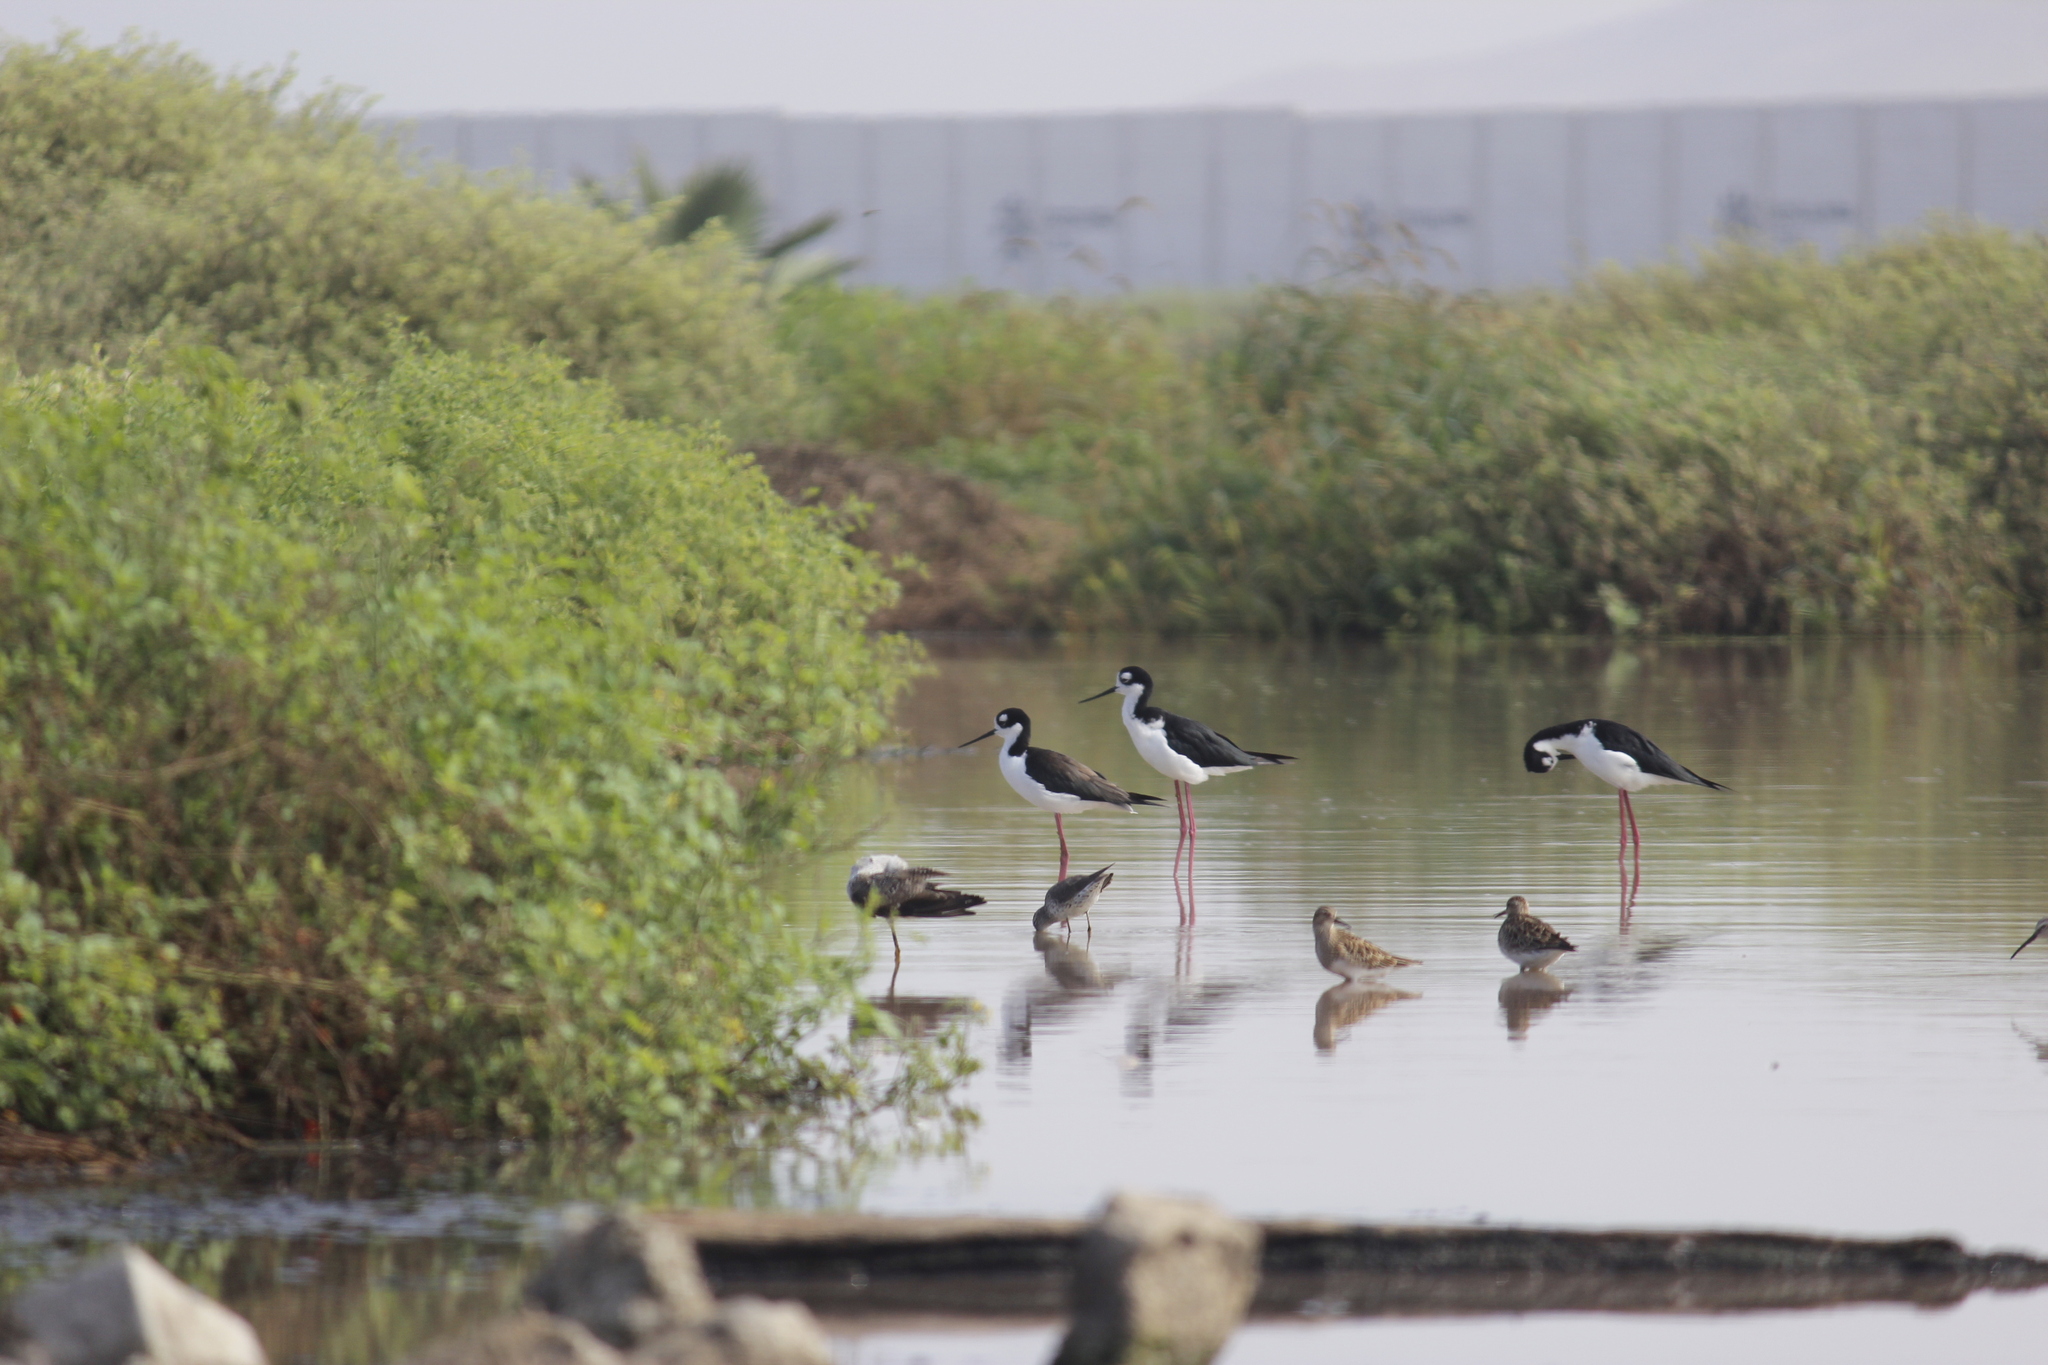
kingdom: Animalia
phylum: Chordata
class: Aves
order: Charadriiformes
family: Recurvirostridae
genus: Himantopus
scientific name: Himantopus mexicanus
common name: Black-necked stilt
